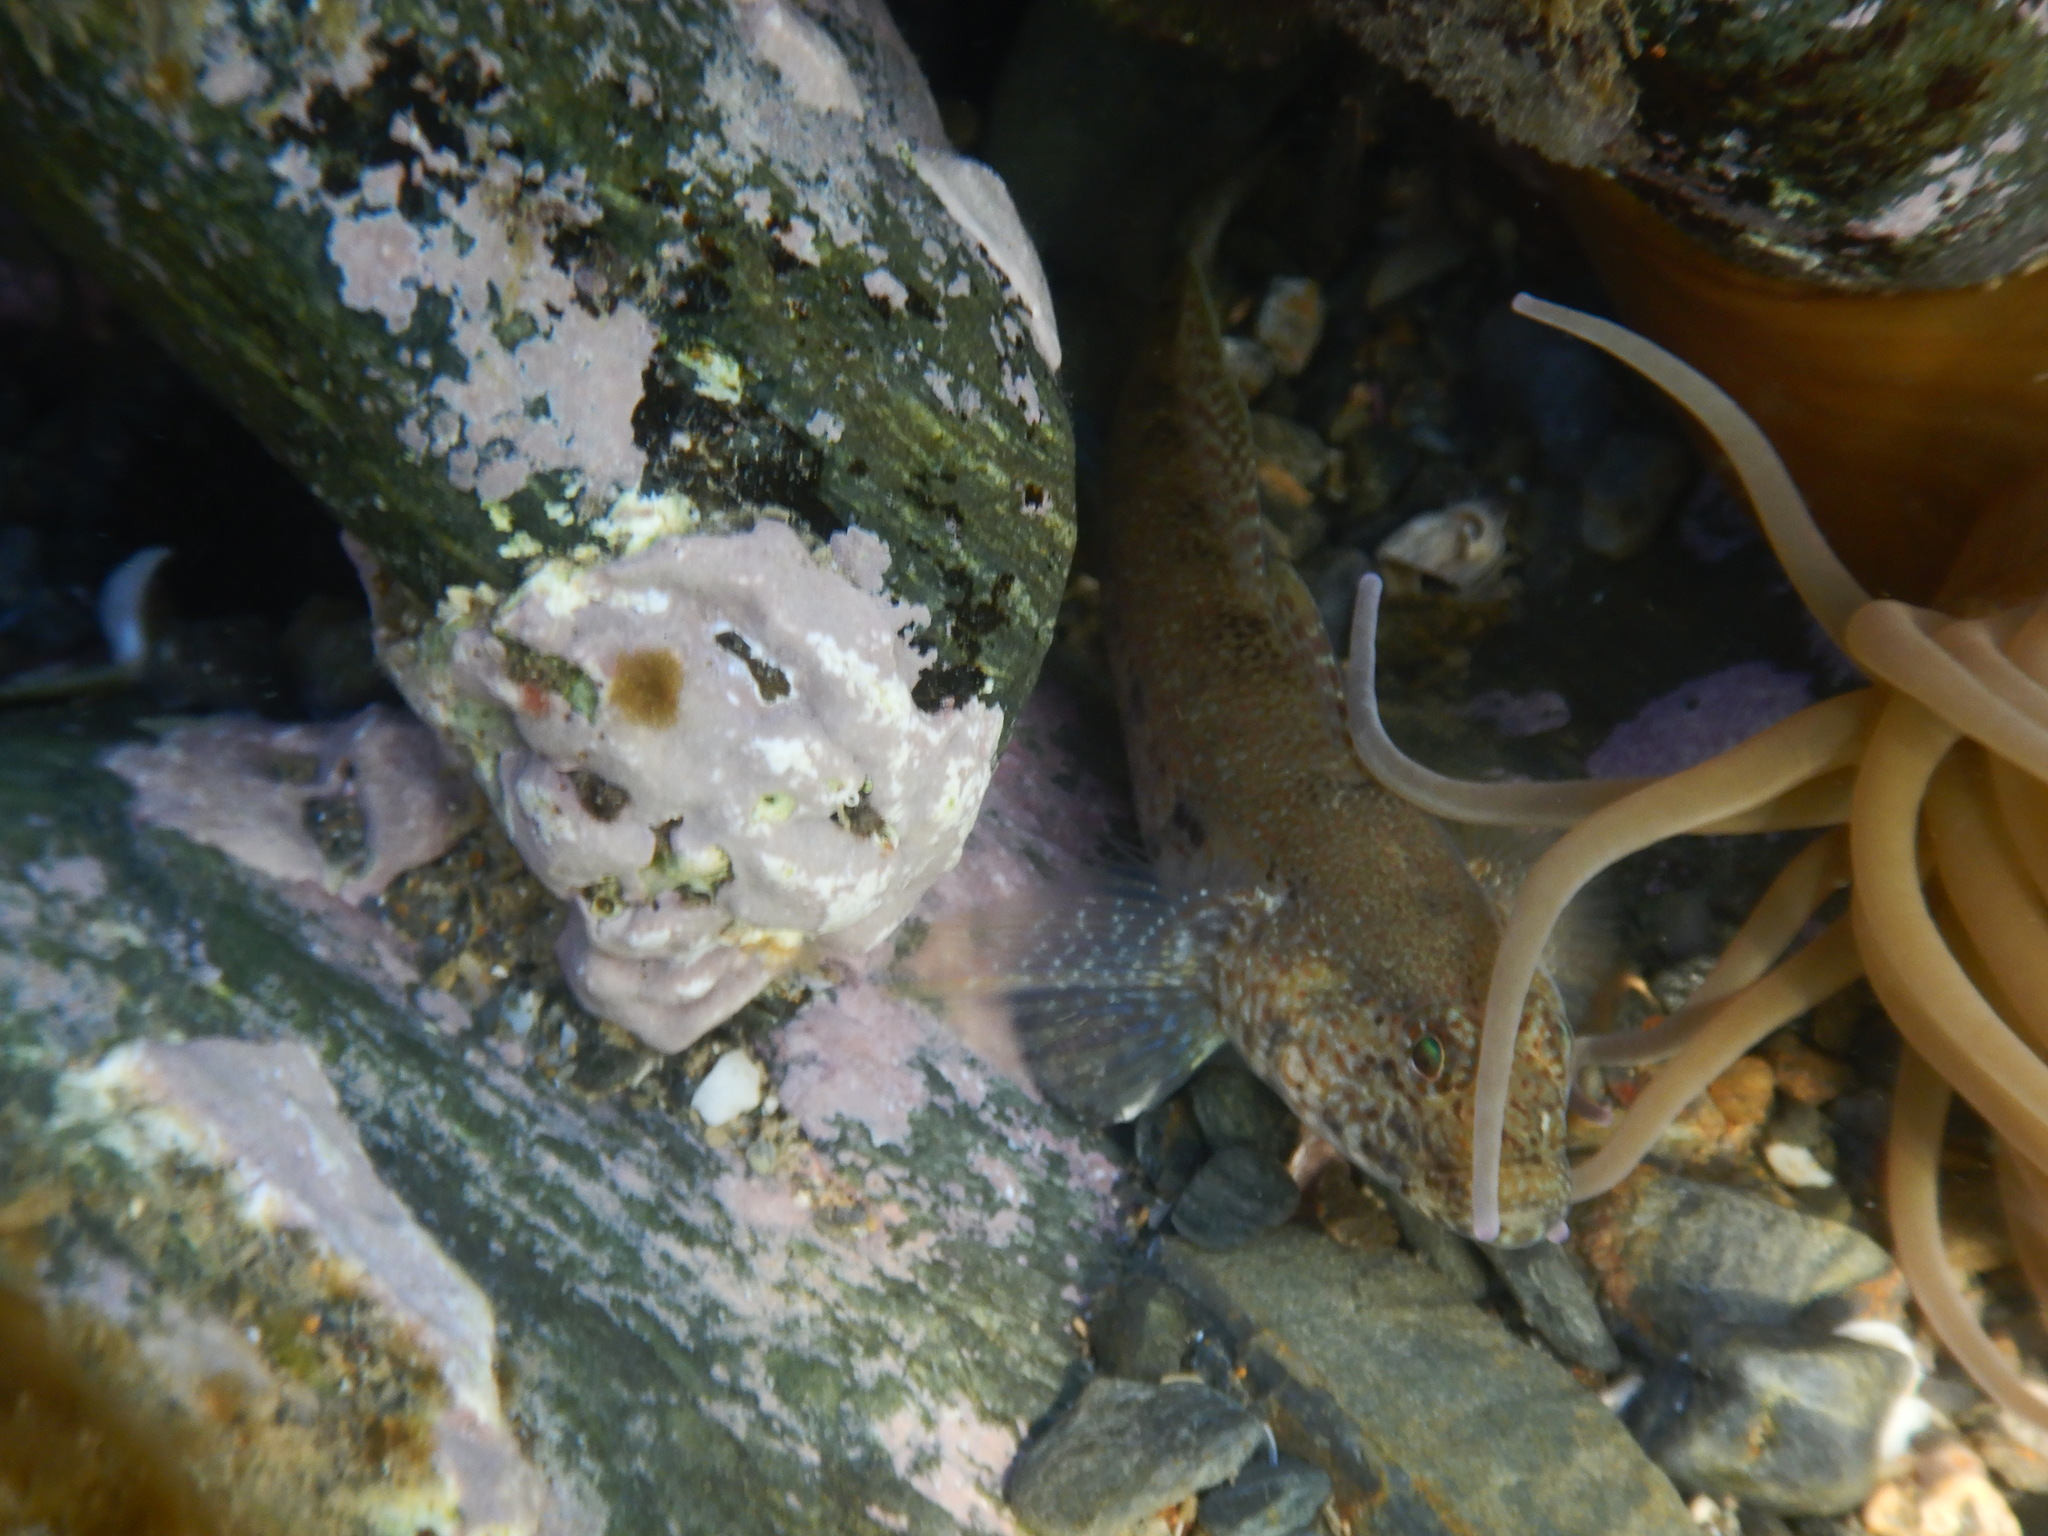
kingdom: Animalia
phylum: Chordata
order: Perciformes
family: Gobiidae
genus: Gobius
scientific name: Gobius incognitus
